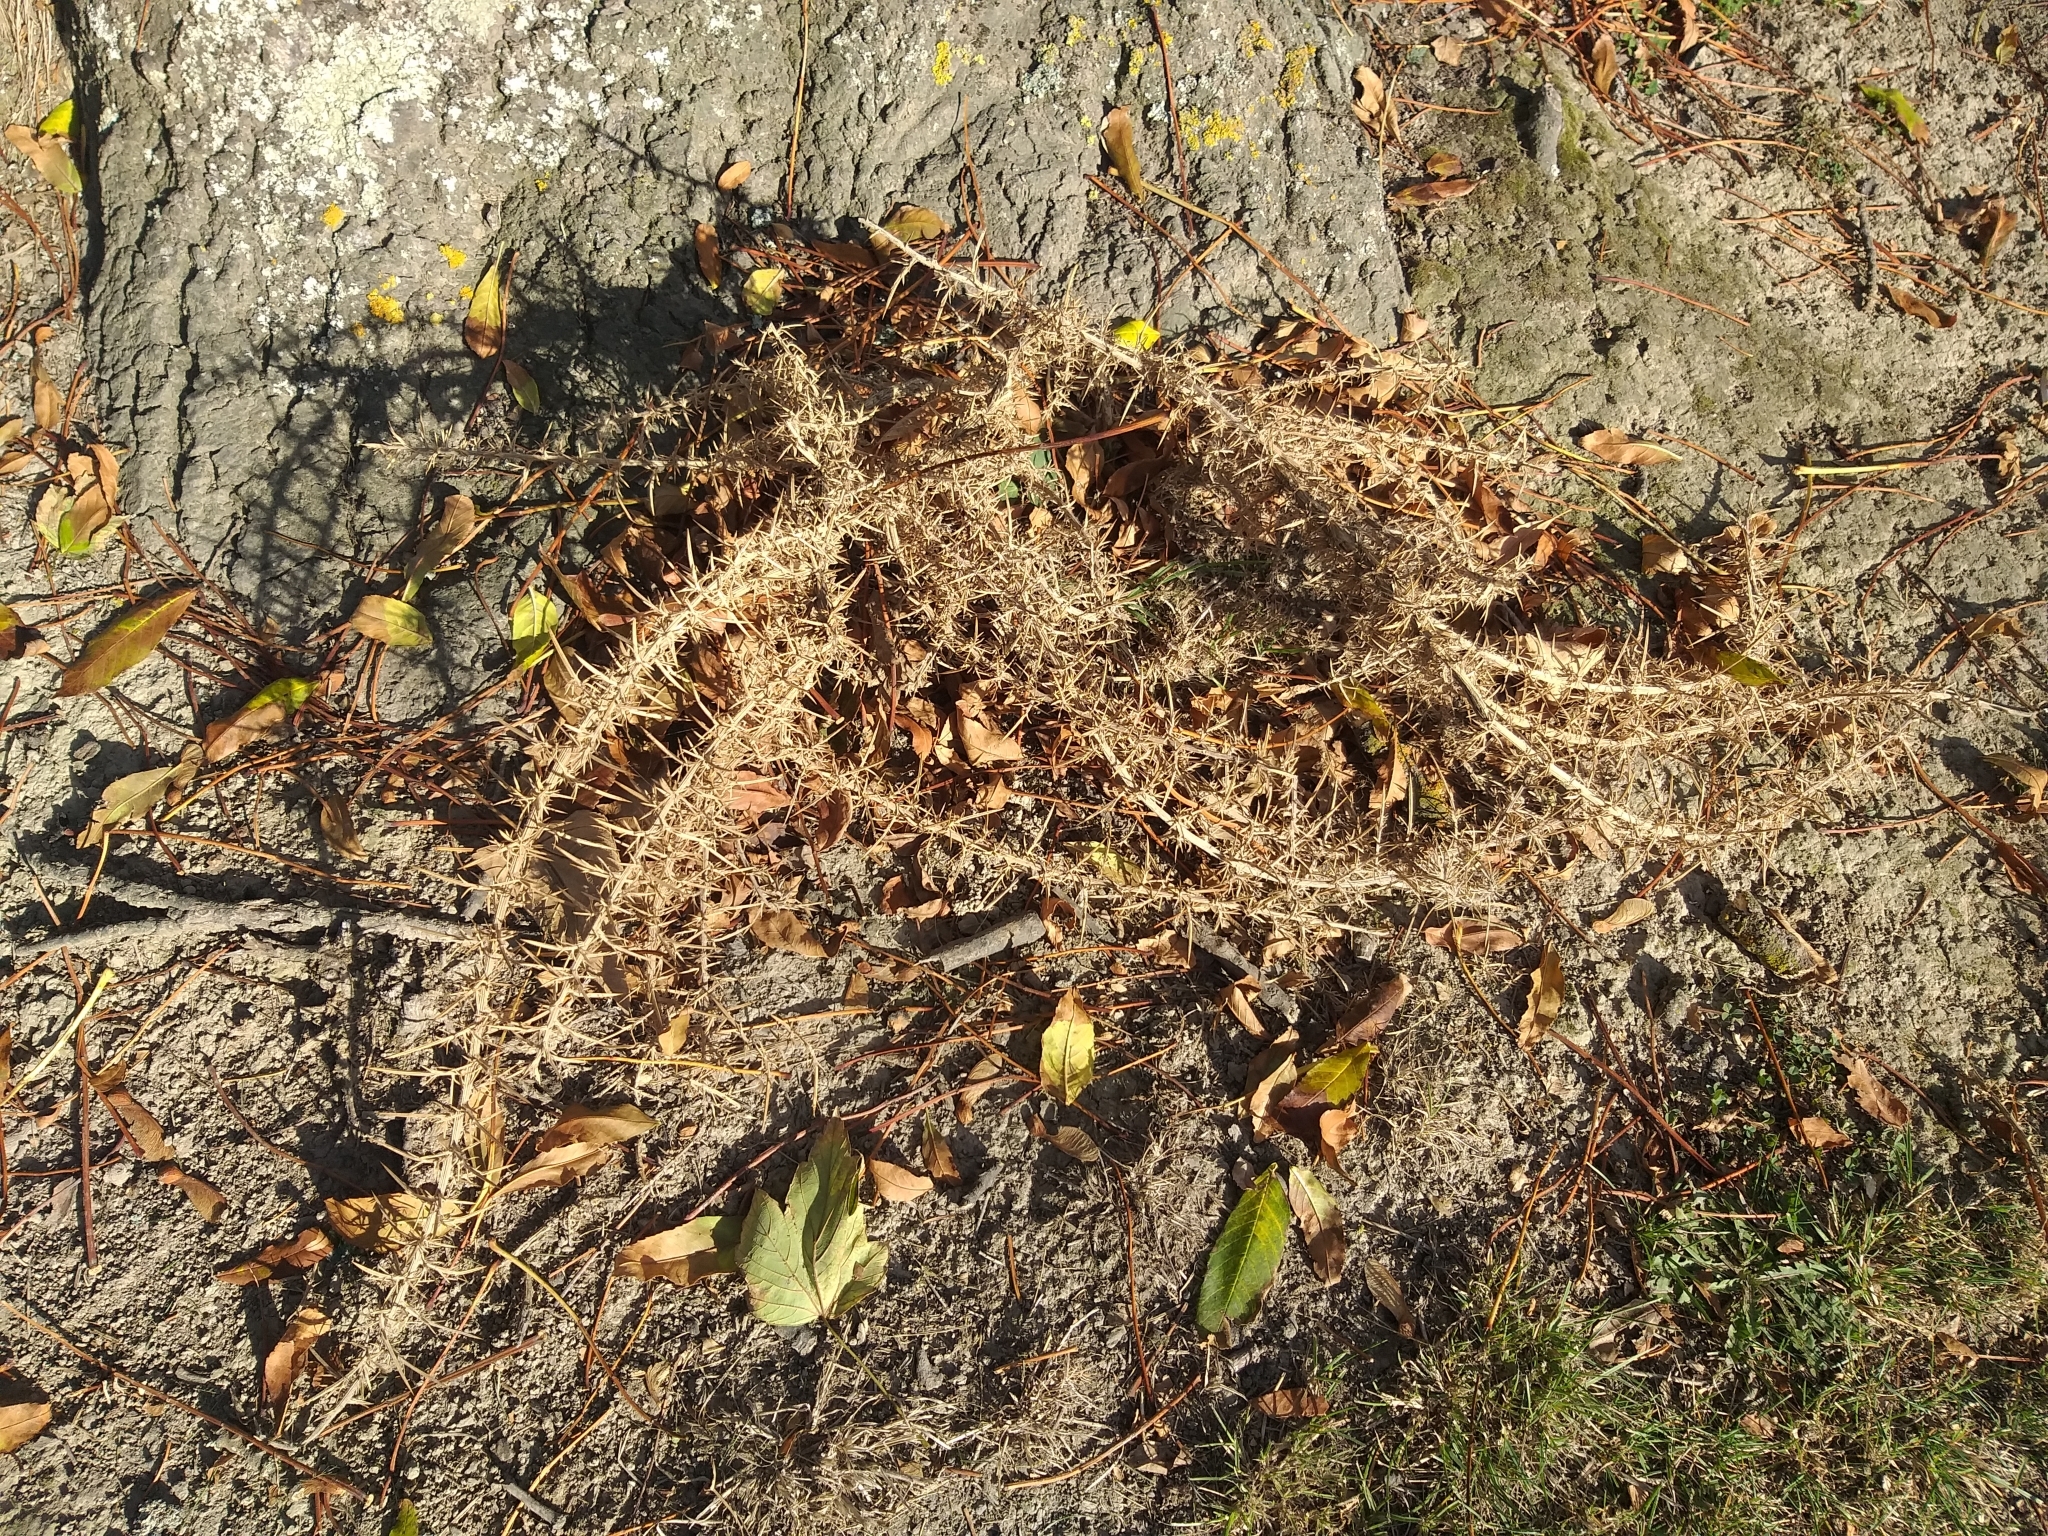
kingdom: Plantae
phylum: Tracheophyta
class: Magnoliopsida
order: Fabales
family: Fabaceae
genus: Ulex
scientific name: Ulex europaeus
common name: Common gorse
